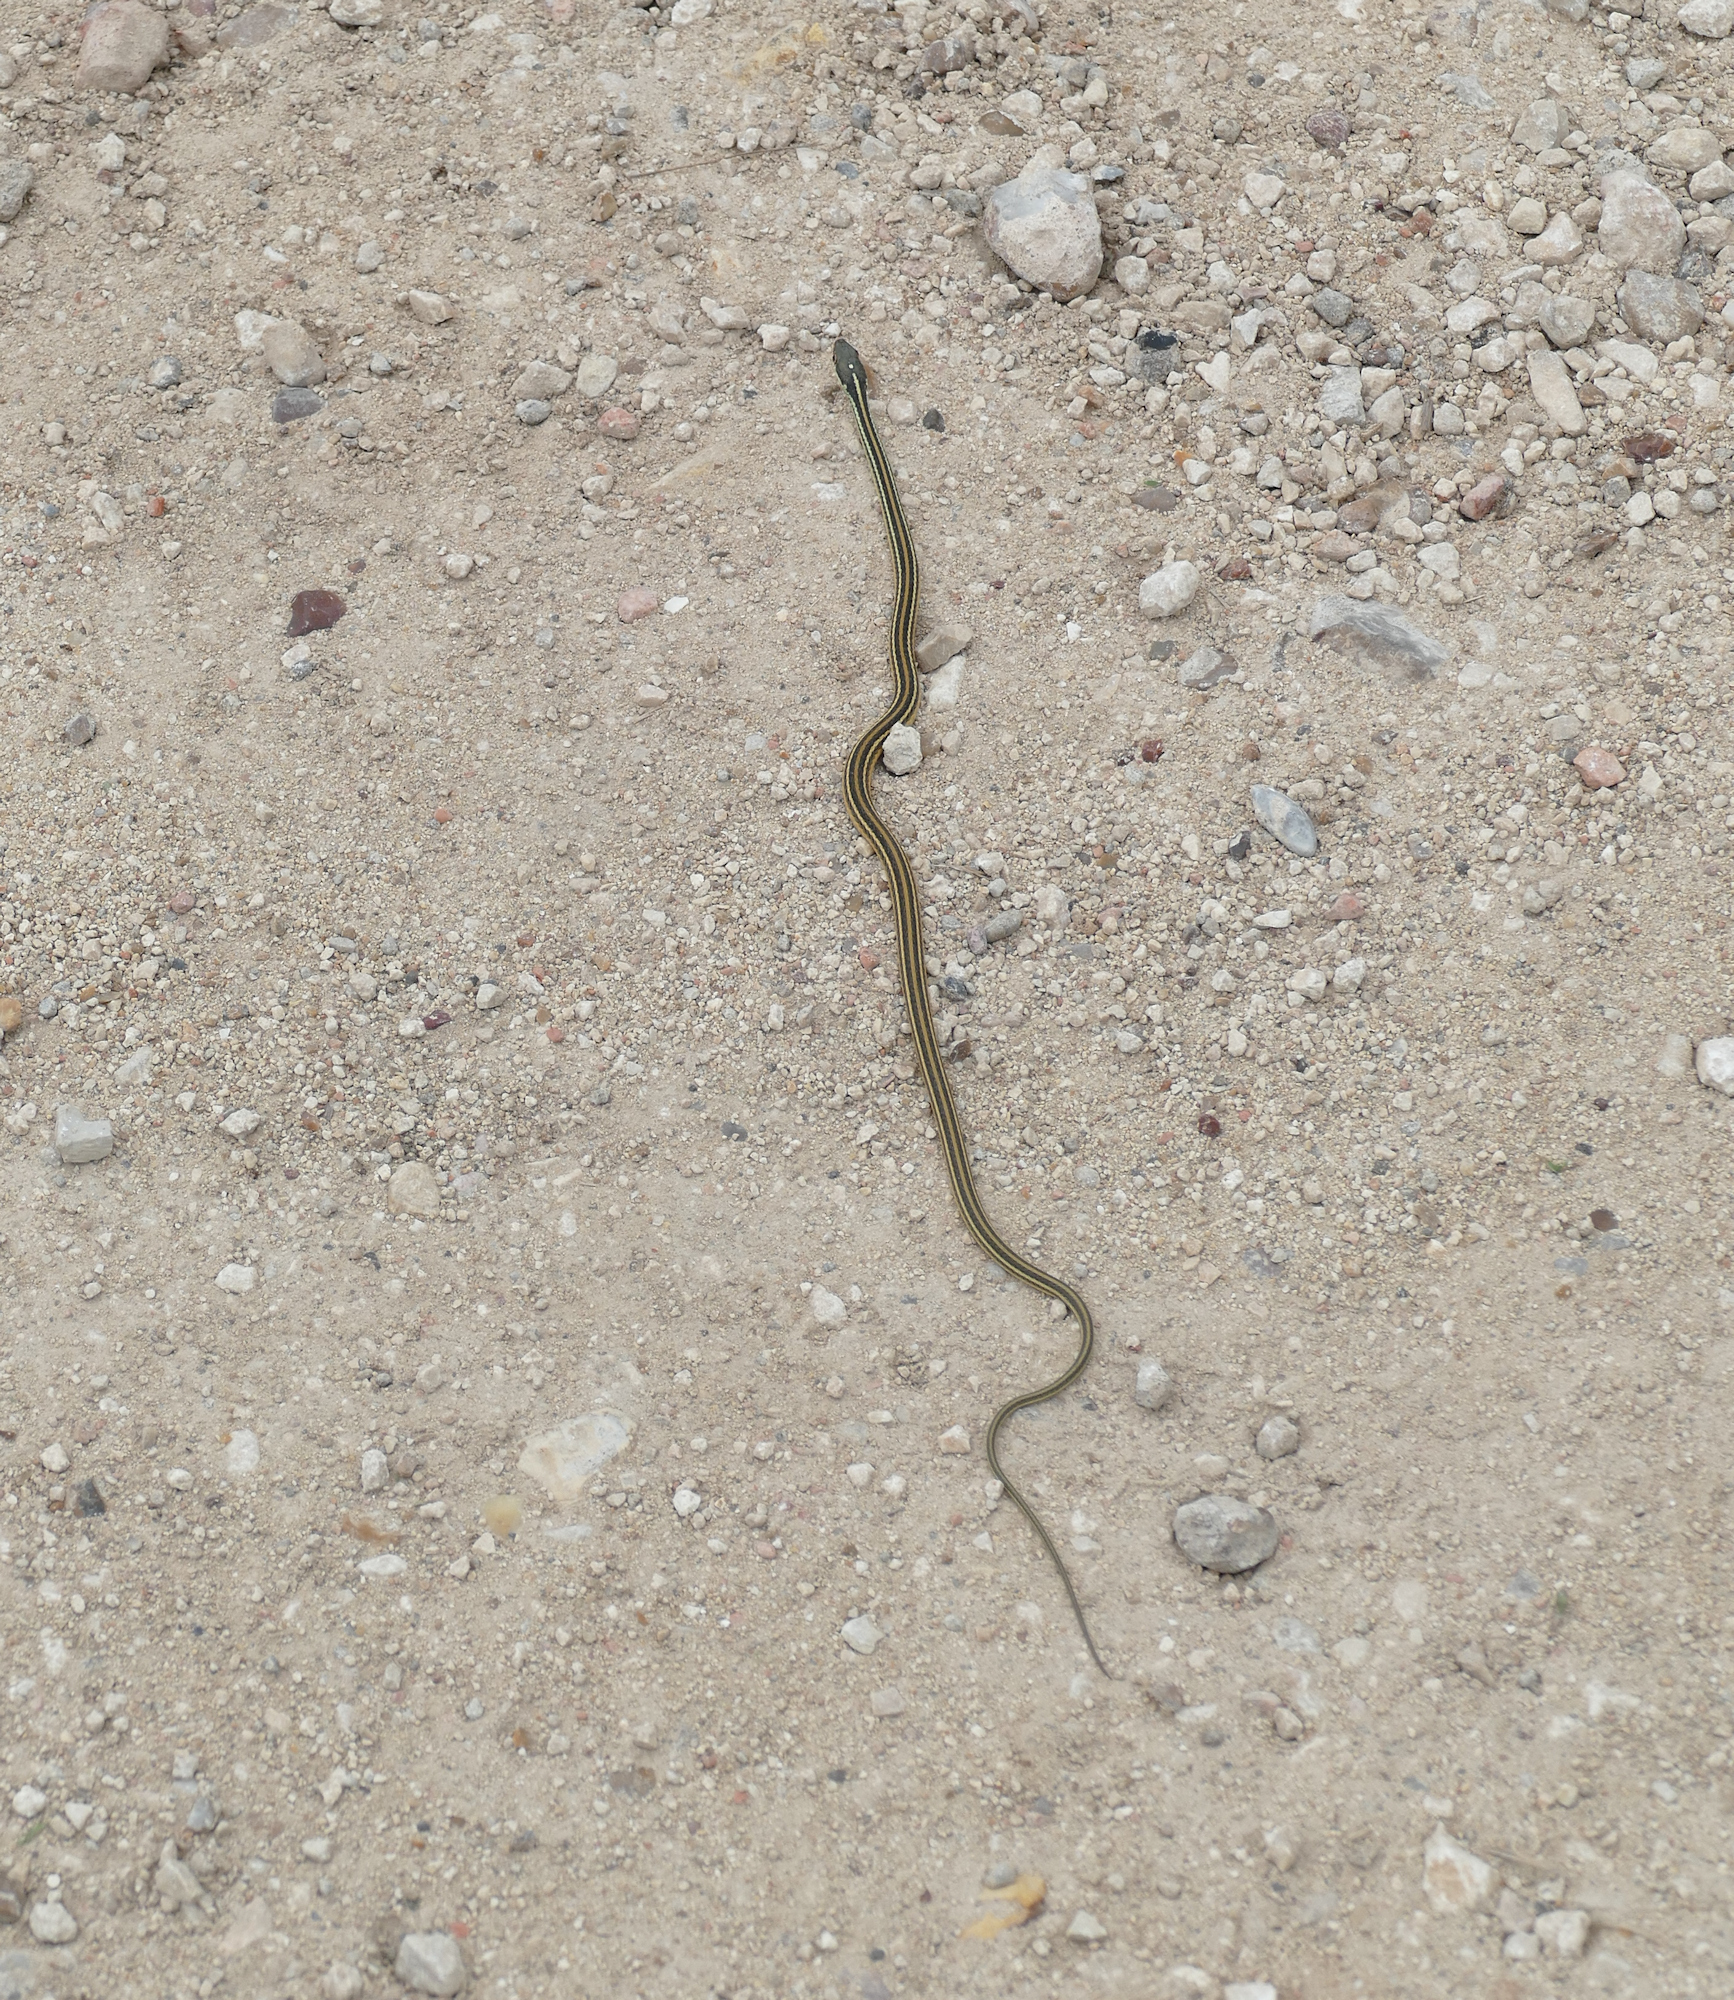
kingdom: Animalia
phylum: Chordata
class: Squamata
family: Colubridae
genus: Thamnophis
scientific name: Thamnophis proximus
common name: Western ribbon snake
